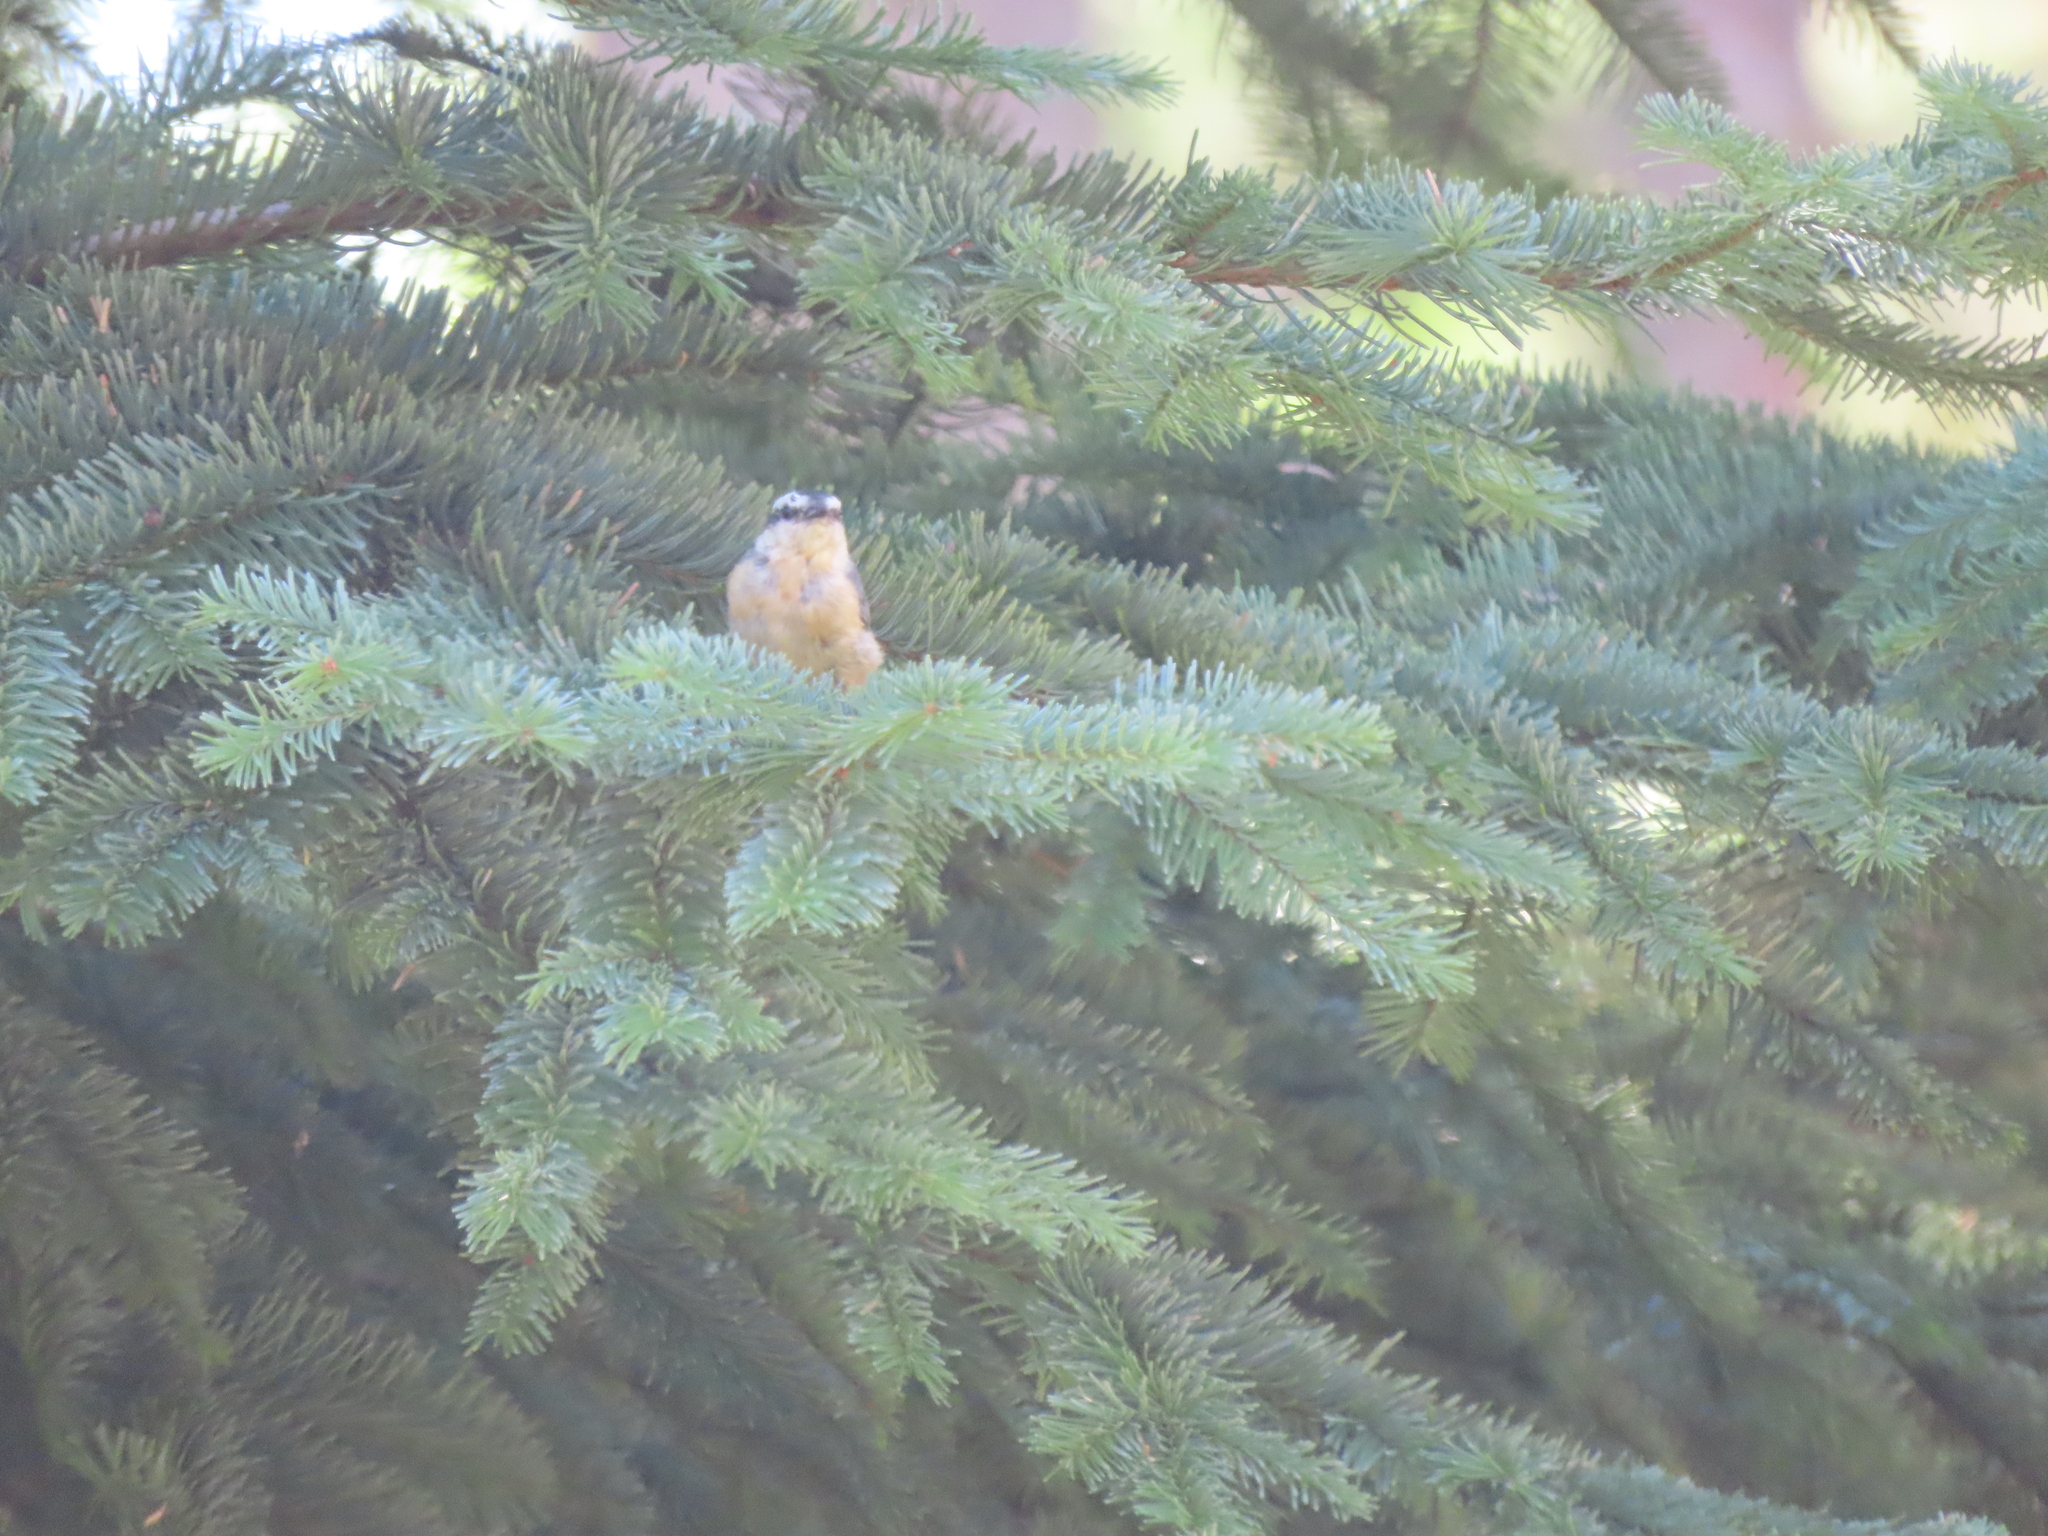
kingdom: Animalia
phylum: Chordata
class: Aves
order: Passeriformes
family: Sittidae
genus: Sitta
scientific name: Sitta canadensis
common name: Red-breasted nuthatch
